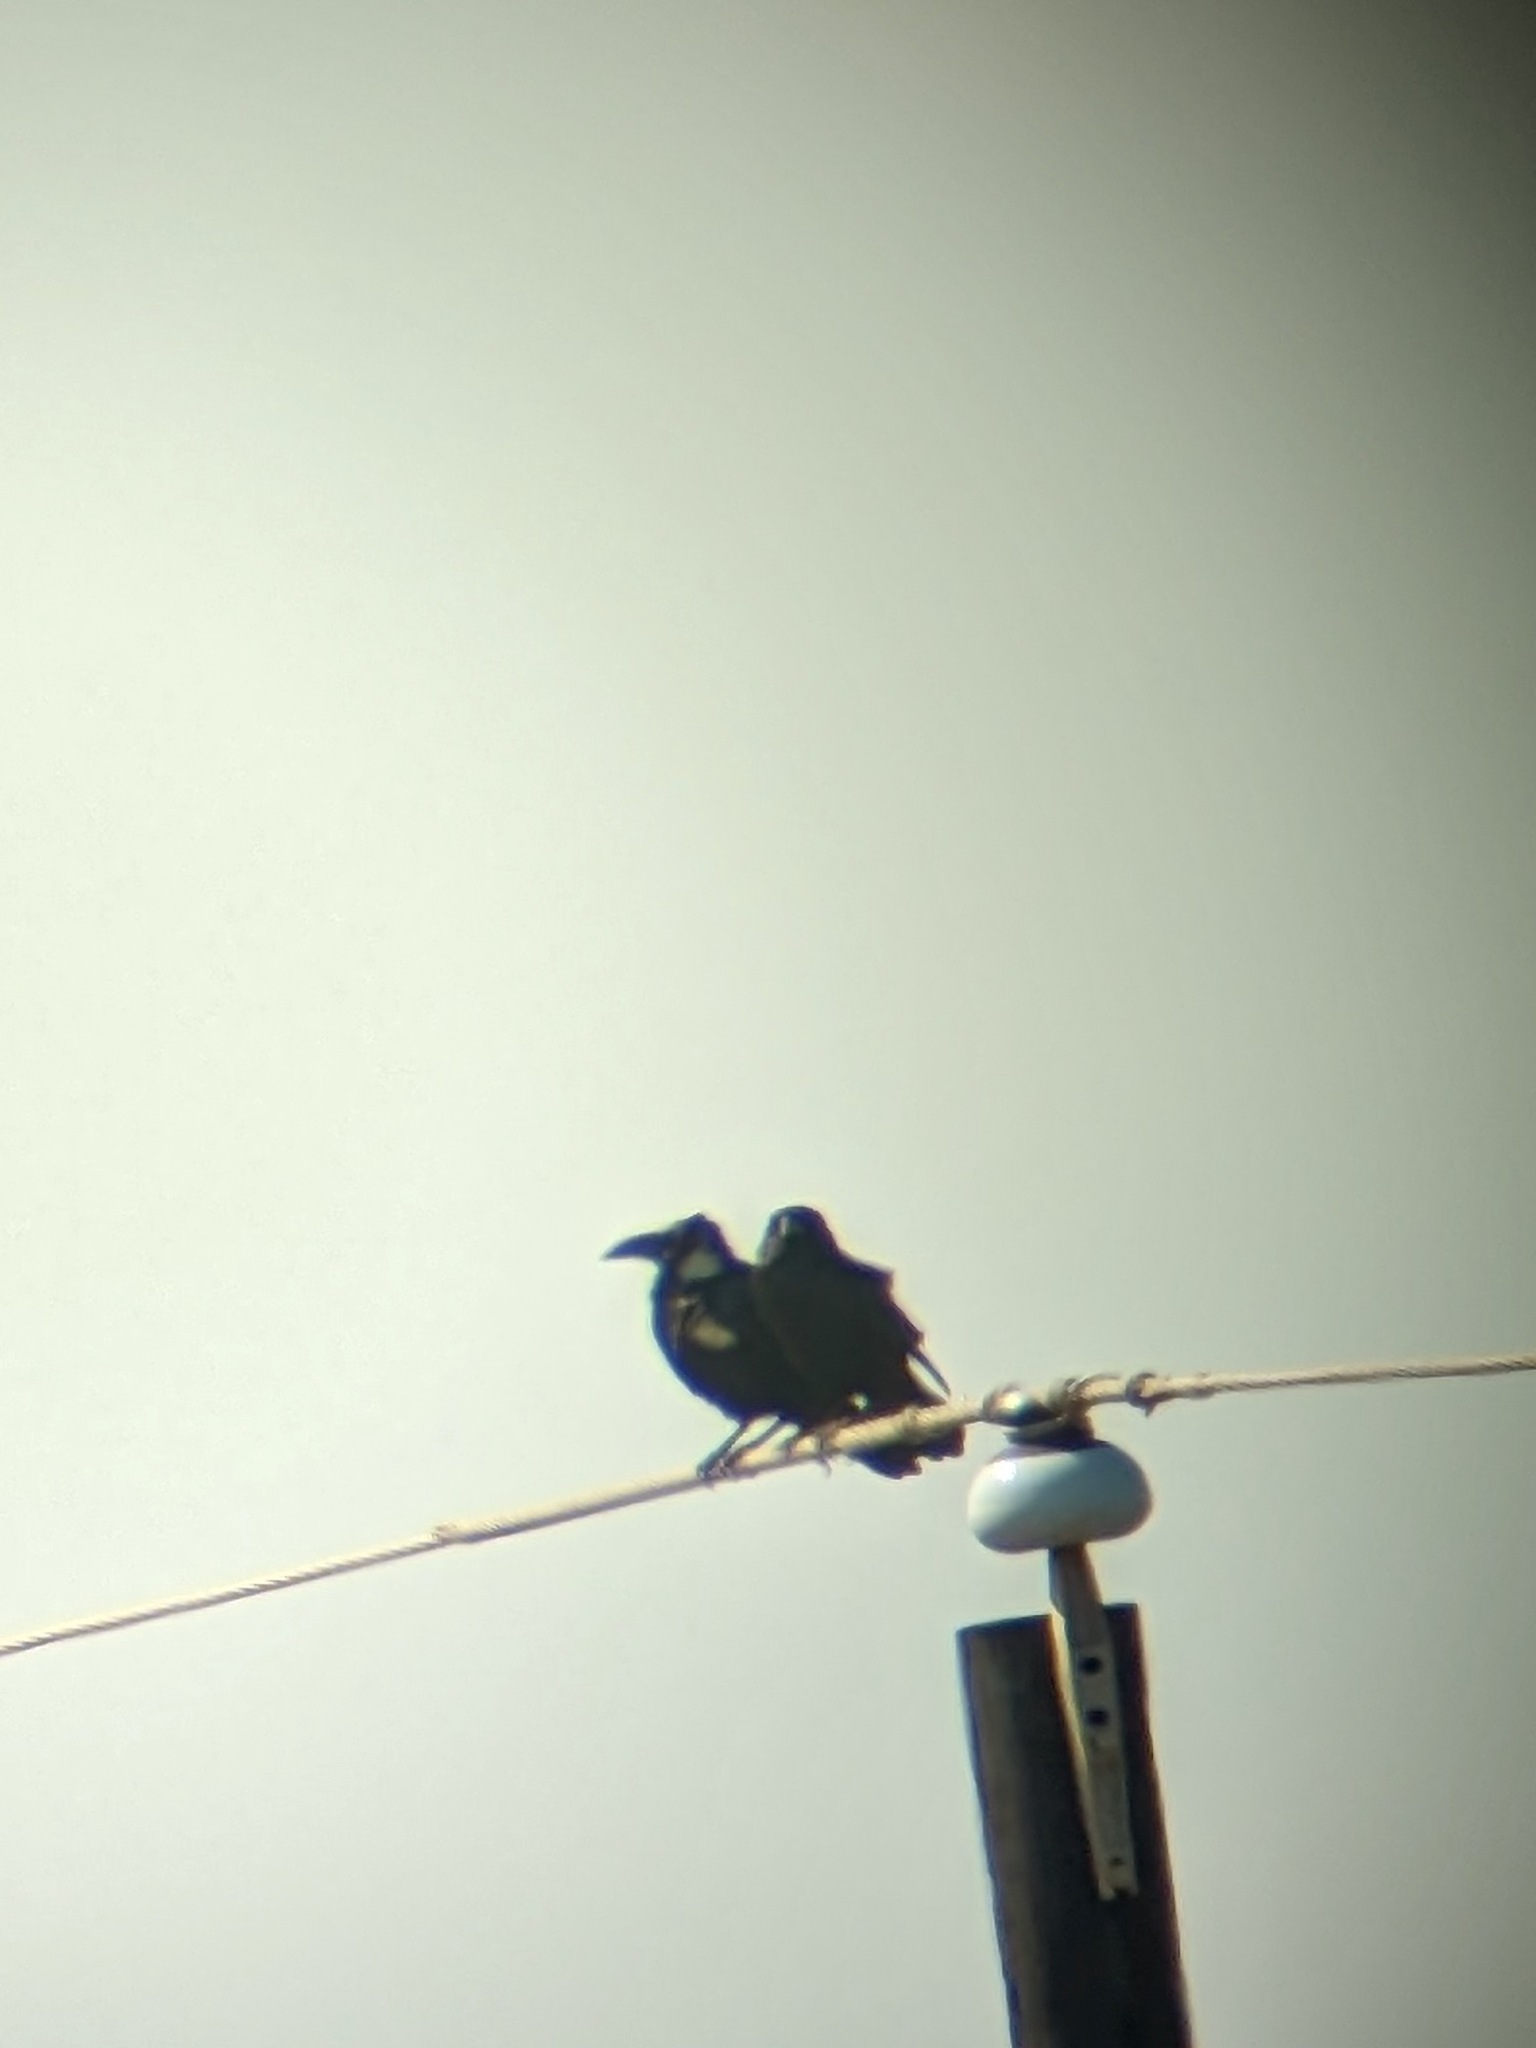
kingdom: Animalia
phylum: Chordata
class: Aves
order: Passeriformes
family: Corvidae
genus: Corvus
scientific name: Corvus cryptoleucus
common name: Chihuahuan raven
